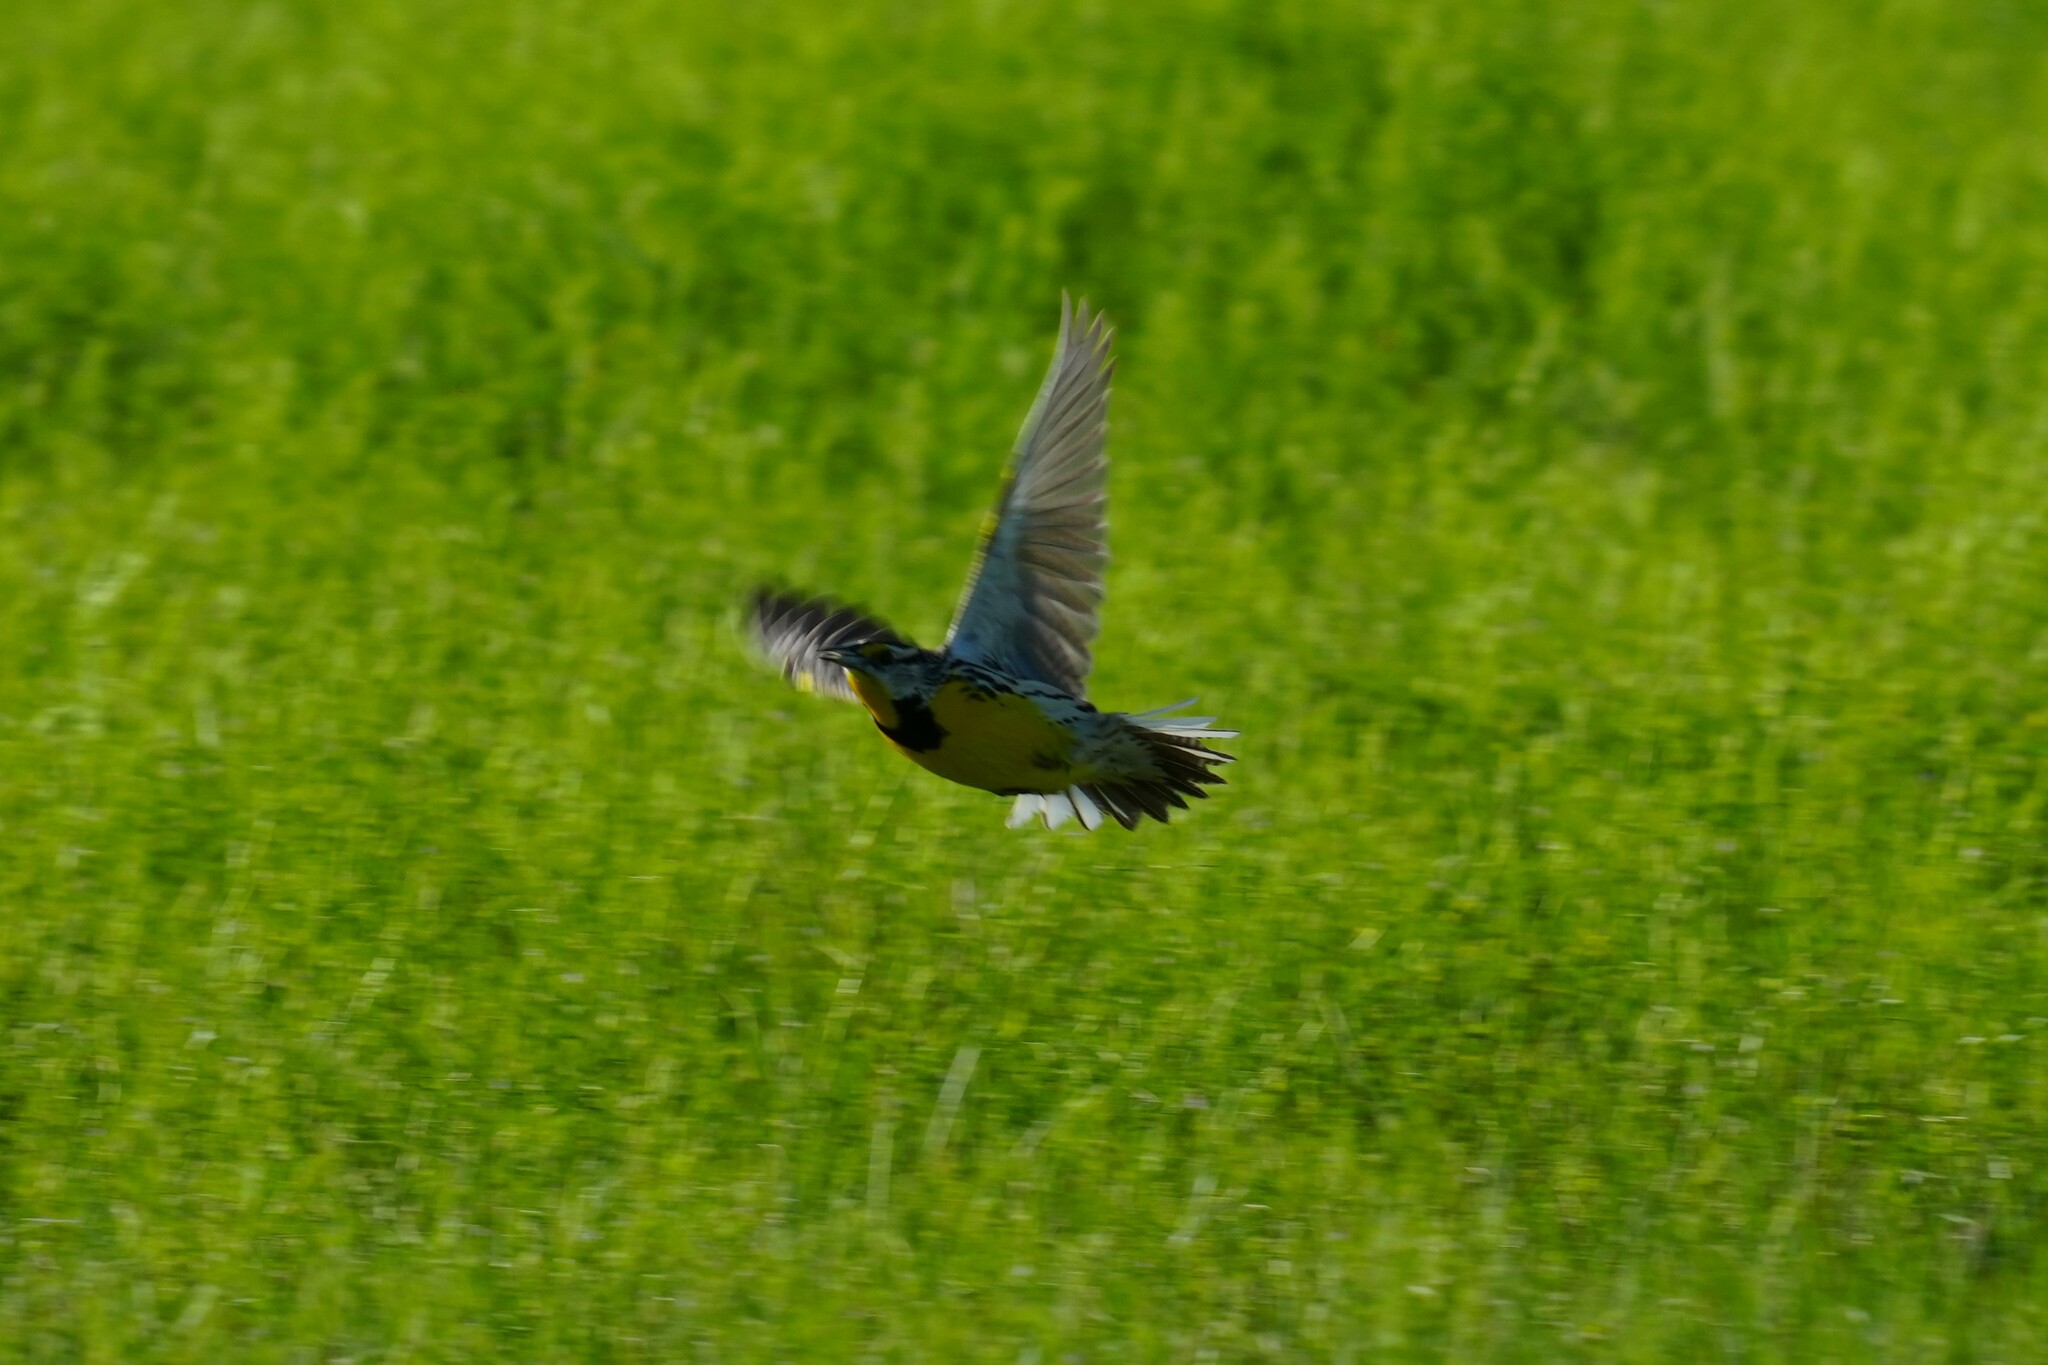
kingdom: Animalia
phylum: Chordata
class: Aves
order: Passeriformes
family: Icteridae
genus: Sturnella
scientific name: Sturnella magna
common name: Eastern meadowlark
